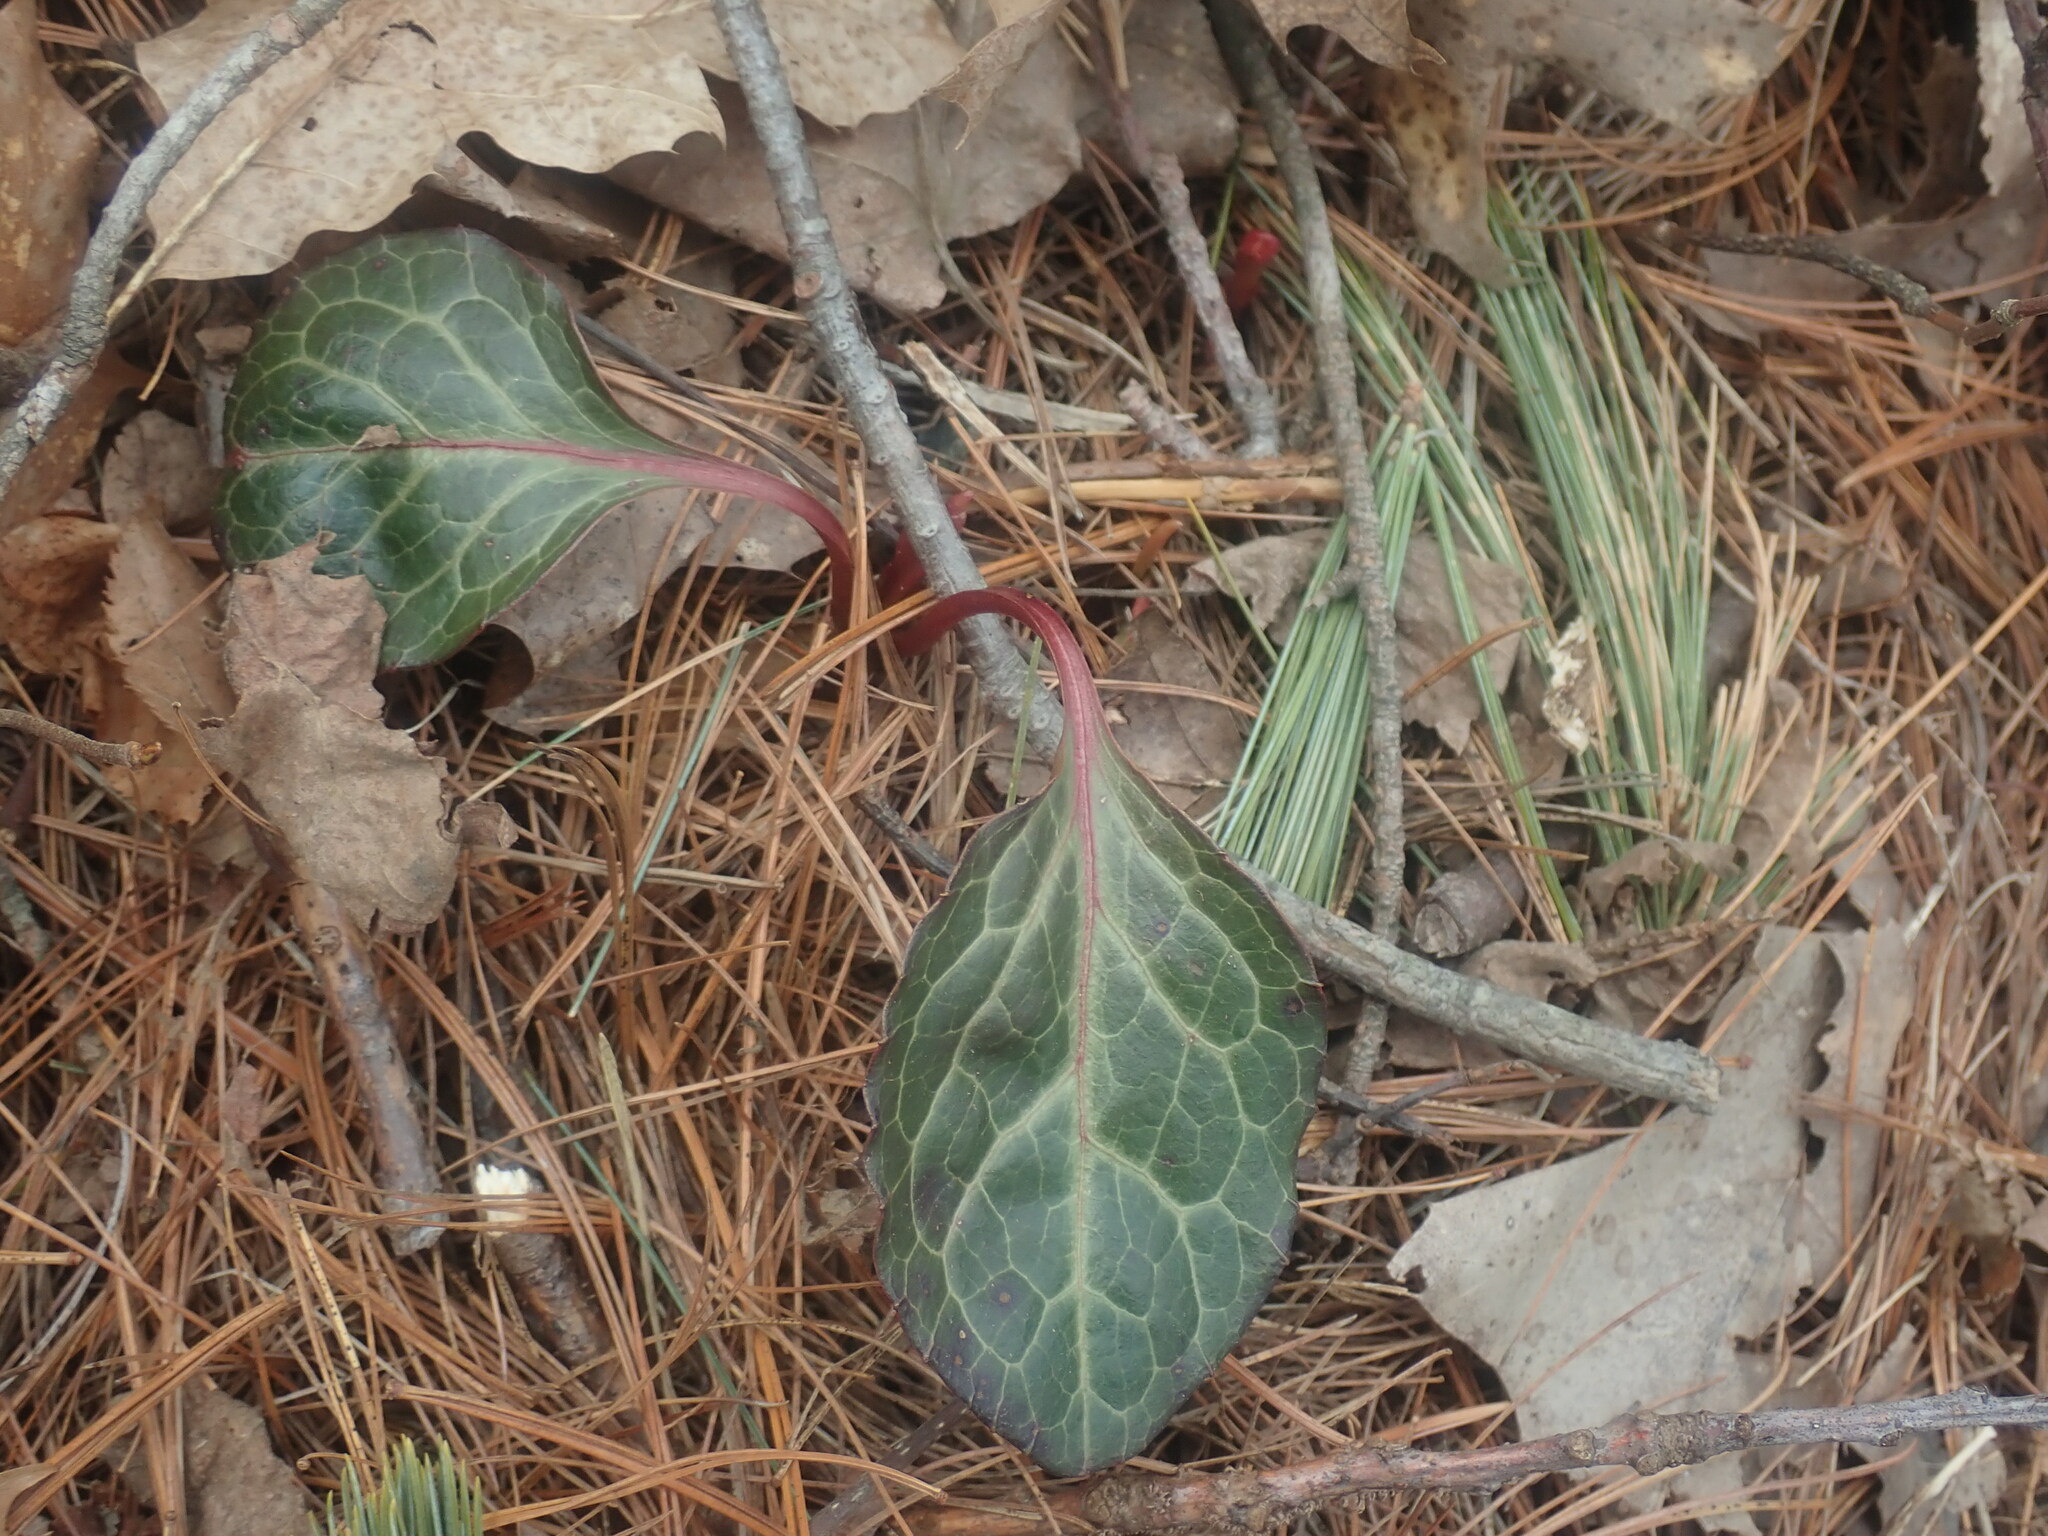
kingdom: Plantae
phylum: Tracheophyta
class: Magnoliopsida
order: Ericales
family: Ericaceae
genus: Pyrola
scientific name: Pyrola americana
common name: American wintergreen
